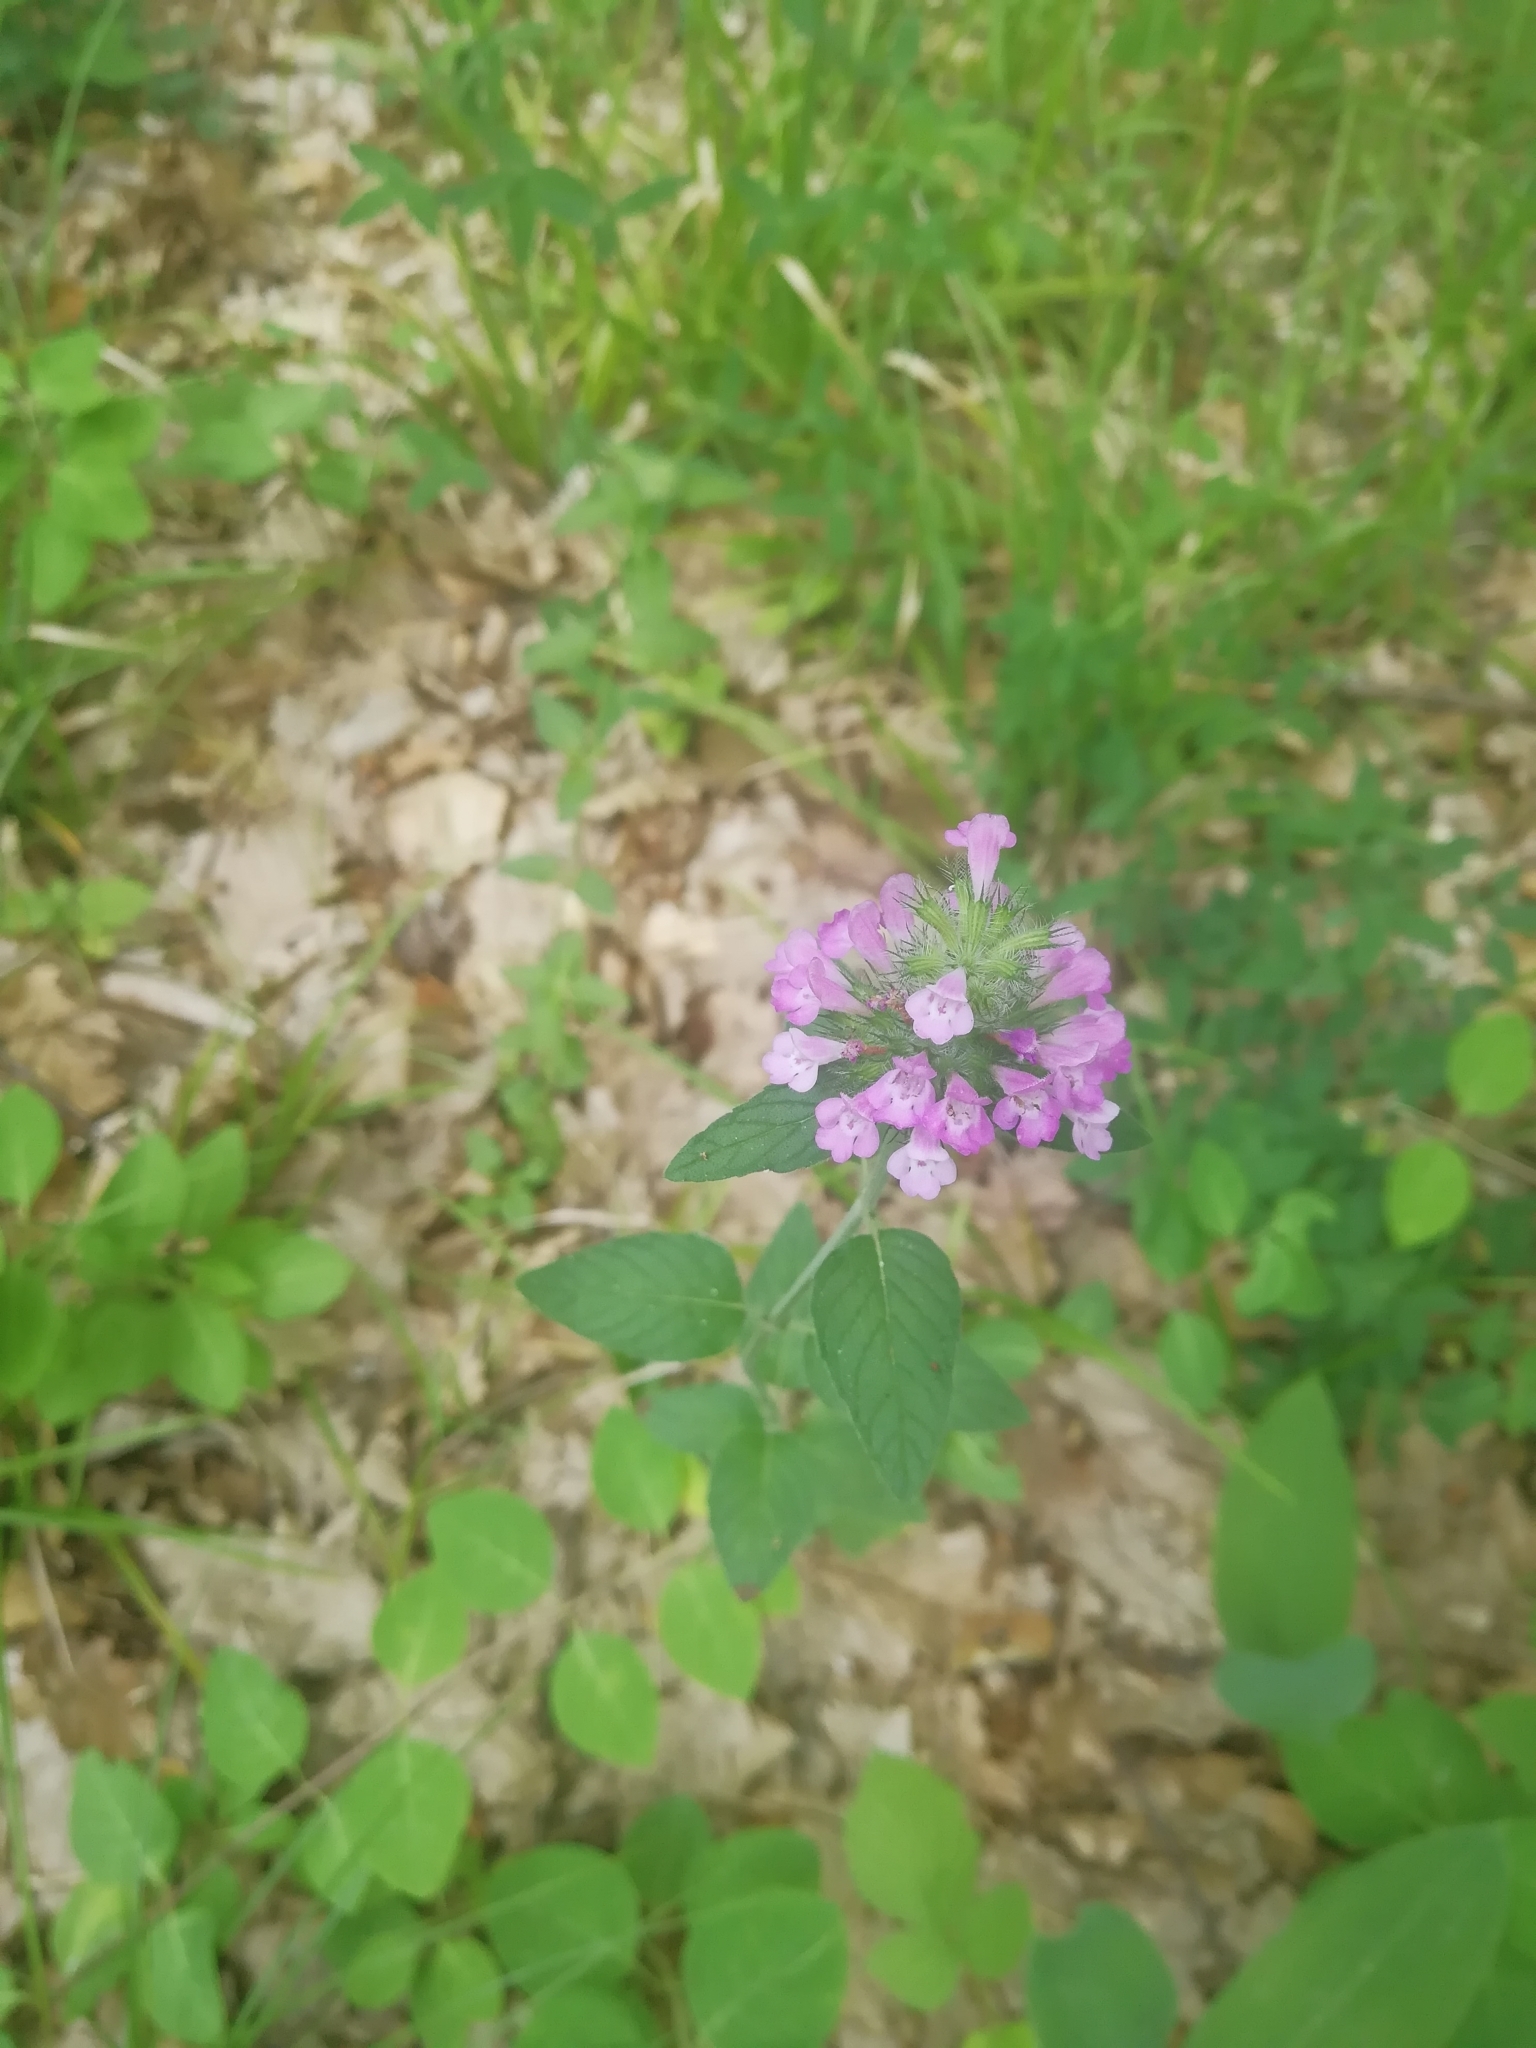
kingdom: Plantae
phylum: Tracheophyta
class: Magnoliopsida
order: Lamiales
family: Lamiaceae
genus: Clinopodium
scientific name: Clinopodium caucasicum
